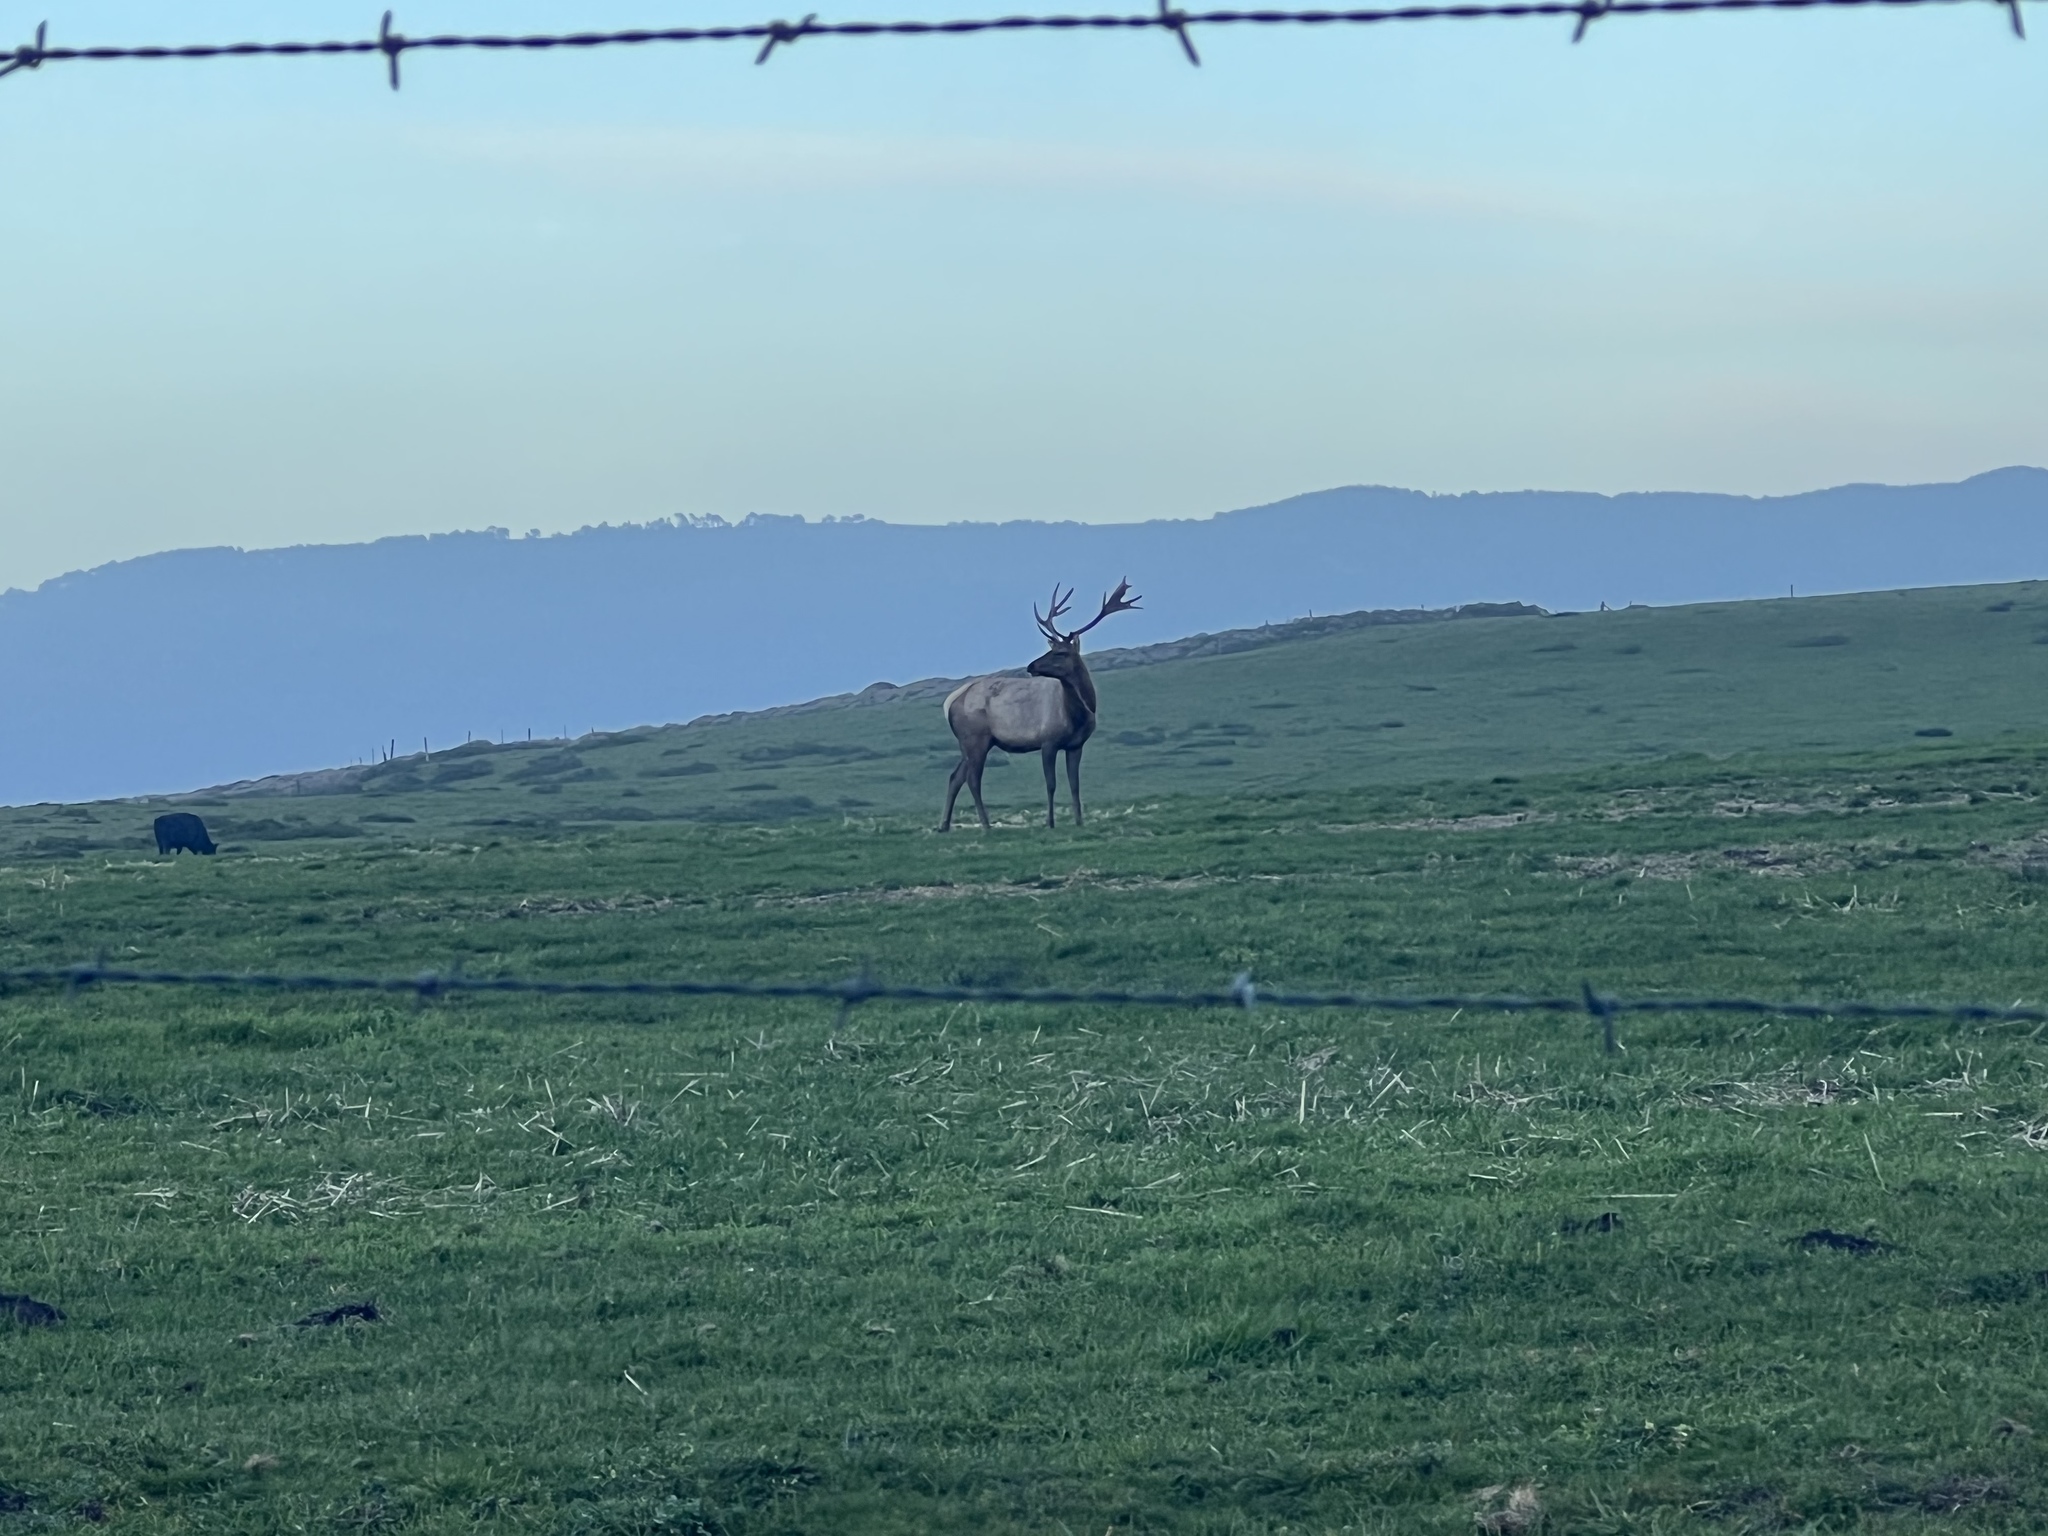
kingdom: Animalia
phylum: Chordata
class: Mammalia
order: Artiodactyla
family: Cervidae
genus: Cervus
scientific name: Cervus elaphus
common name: Red deer
